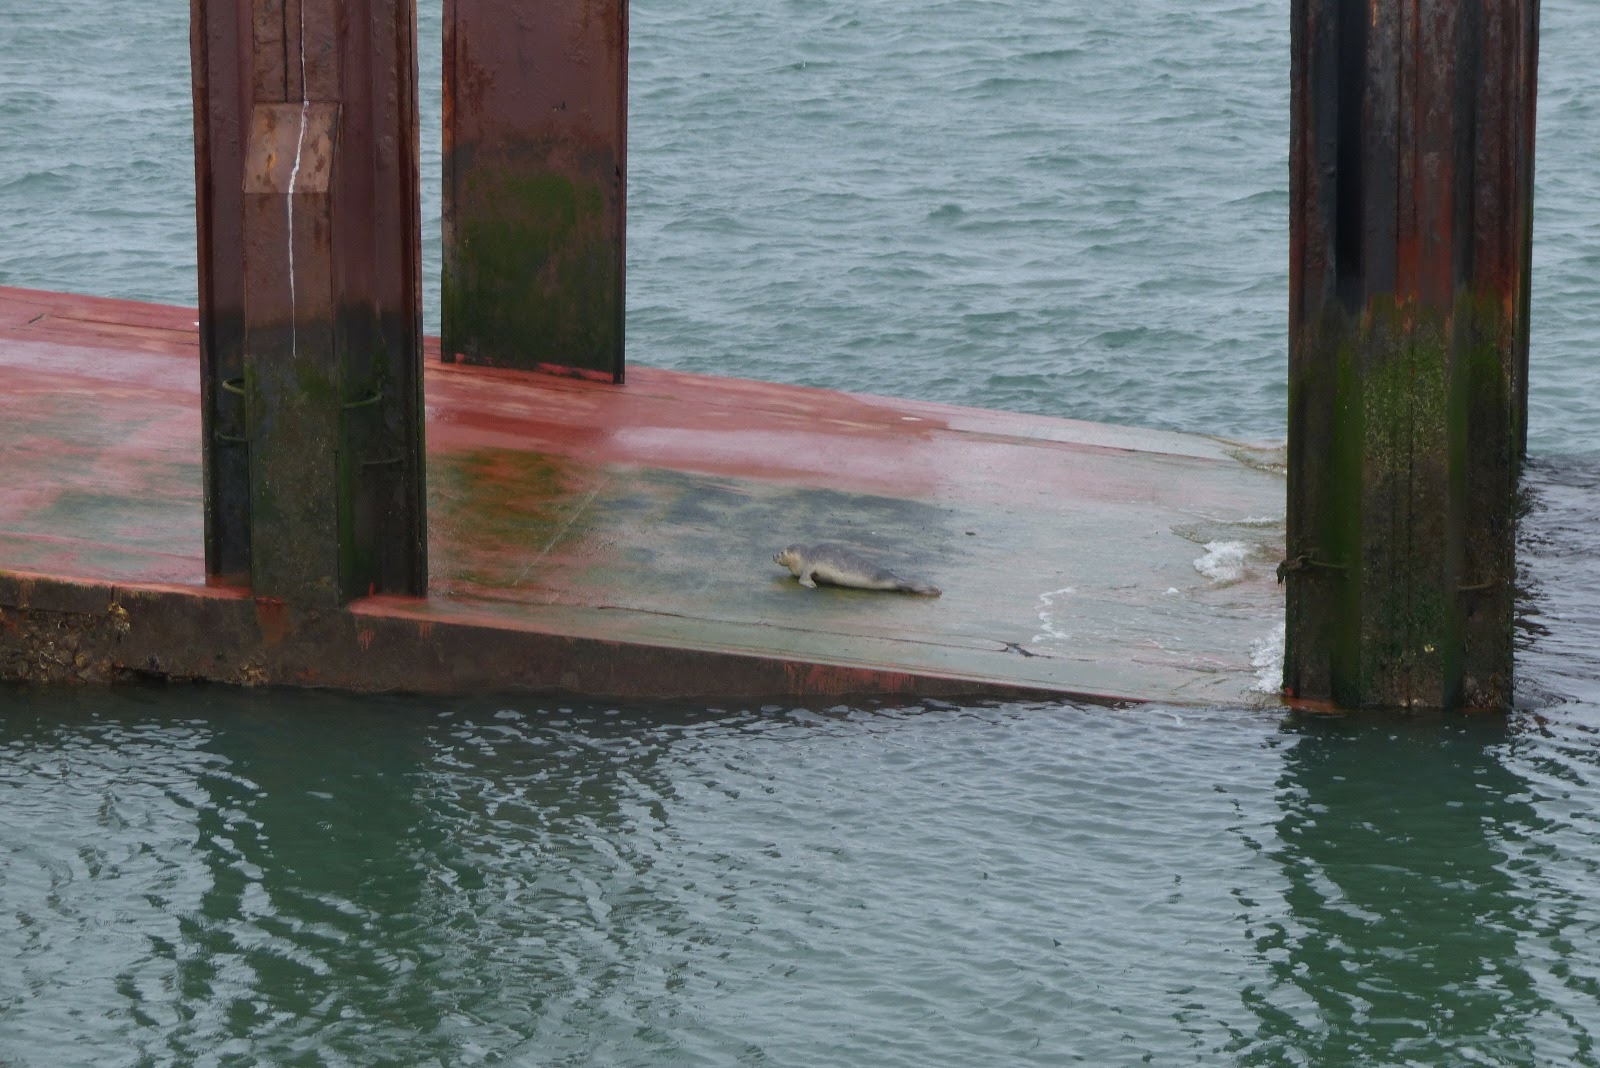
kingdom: Animalia
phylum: Chordata
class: Mammalia
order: Carnivora
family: Phocidae
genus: Phoca
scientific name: Phoca vitulina
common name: Harbor seal
